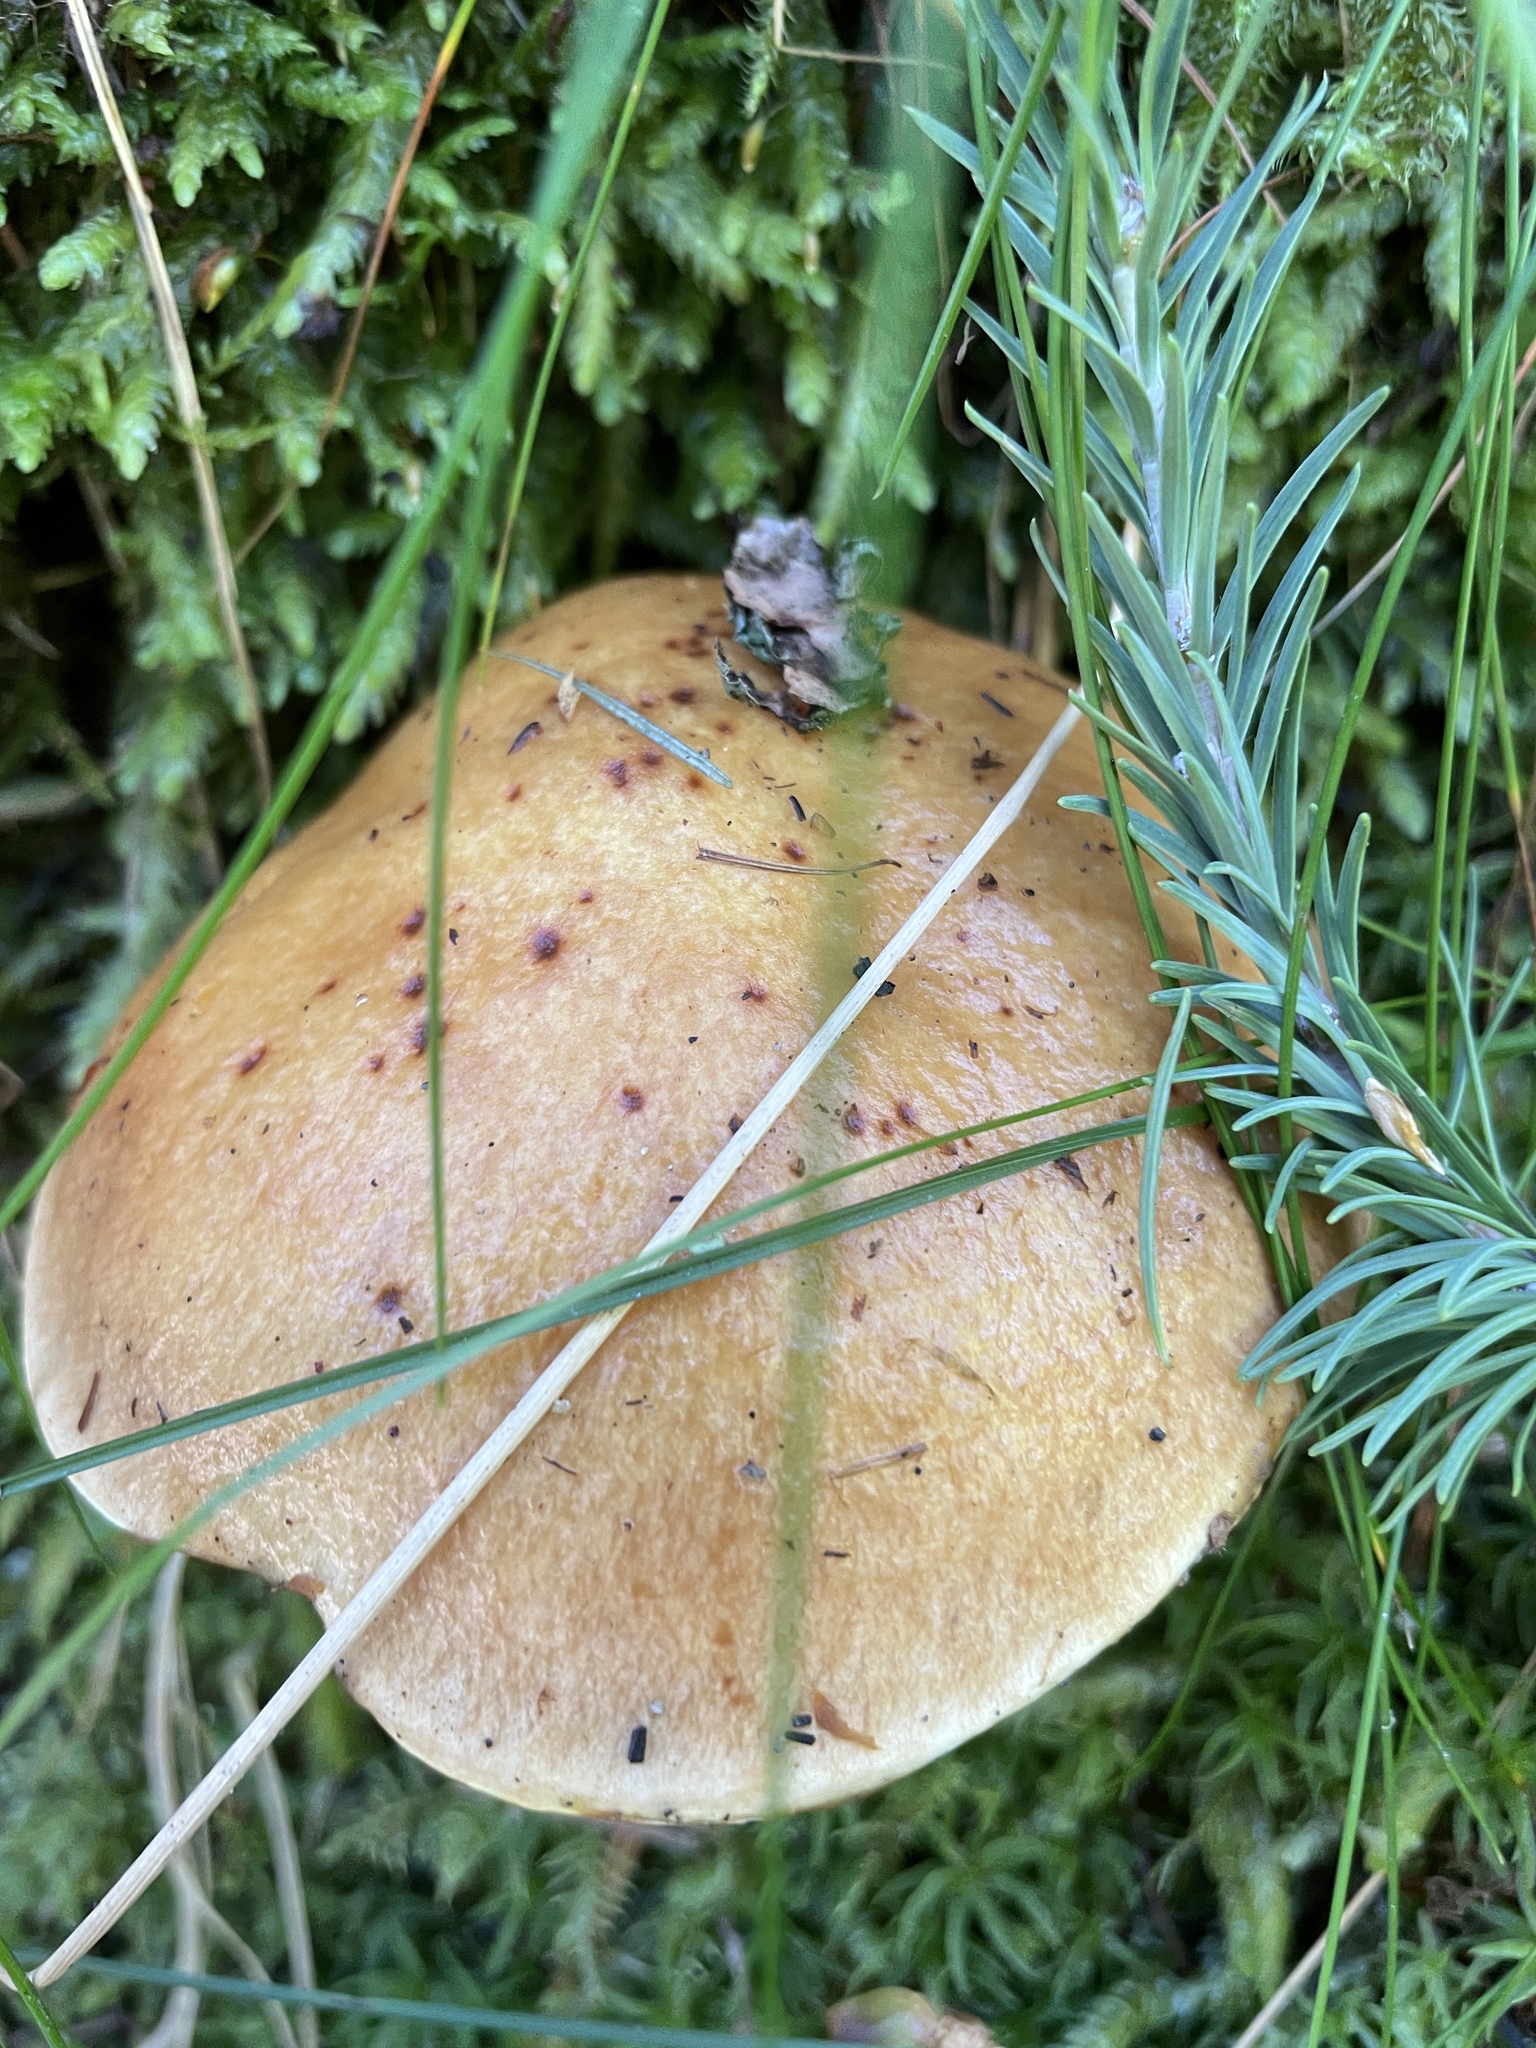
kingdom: Fungi
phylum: Basidiomycota
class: Agaricomycetes
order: Boletales
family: Suillaceae
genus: Suillus
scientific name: Suillus grevillei
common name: Larch bolete
